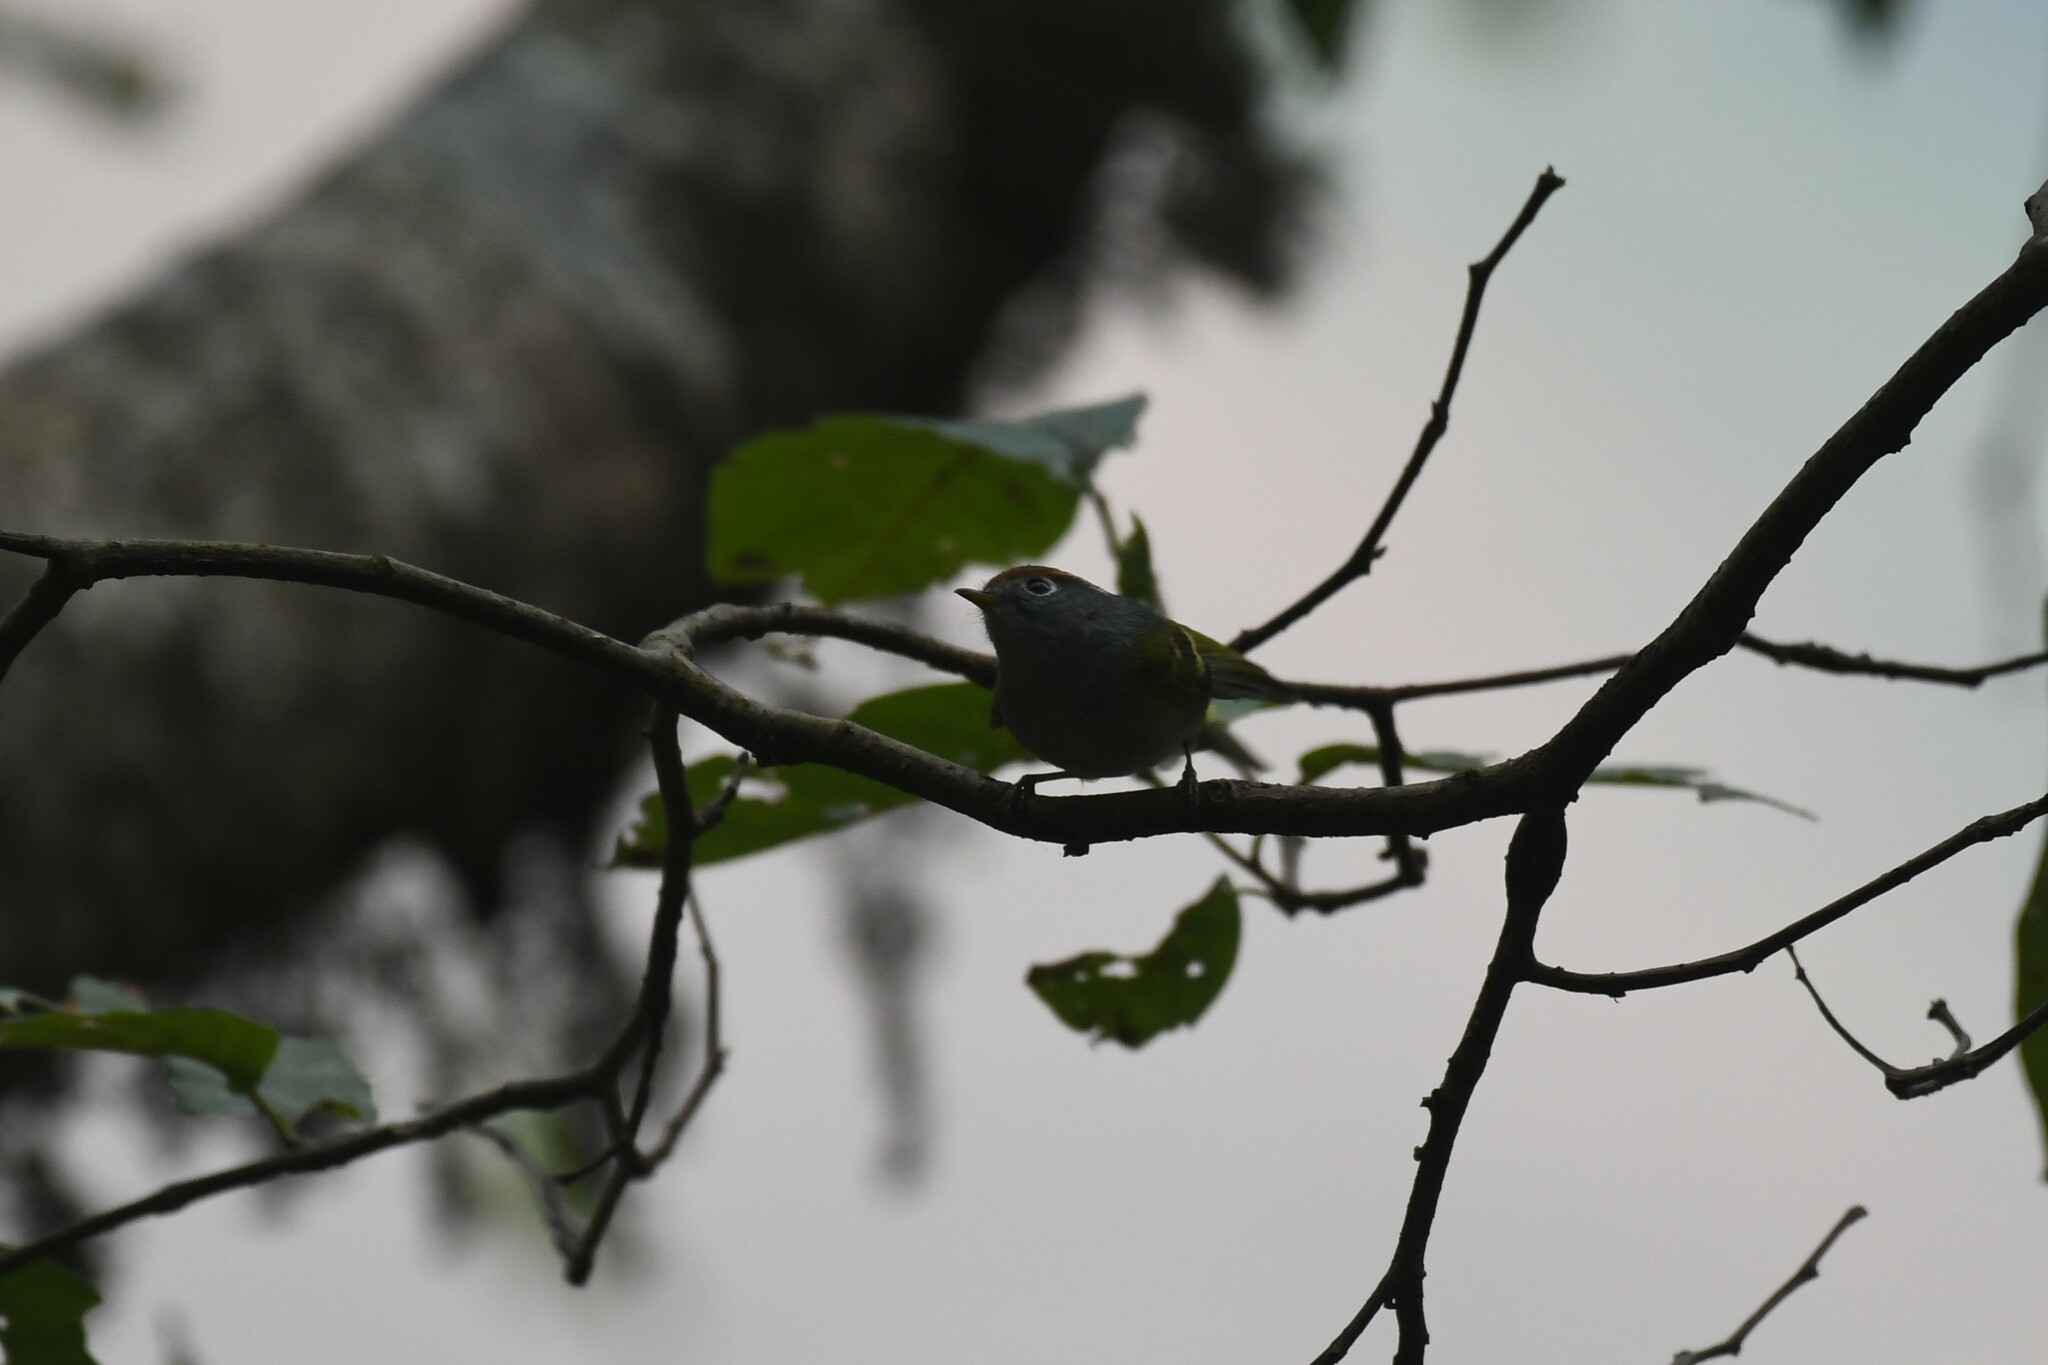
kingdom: Animalia
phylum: Chordata
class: Aves
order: Passeriformes
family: Phylloscopidae
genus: Seicercus
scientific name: Seicercus castaniceps
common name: Chestnut-crowned warbler
